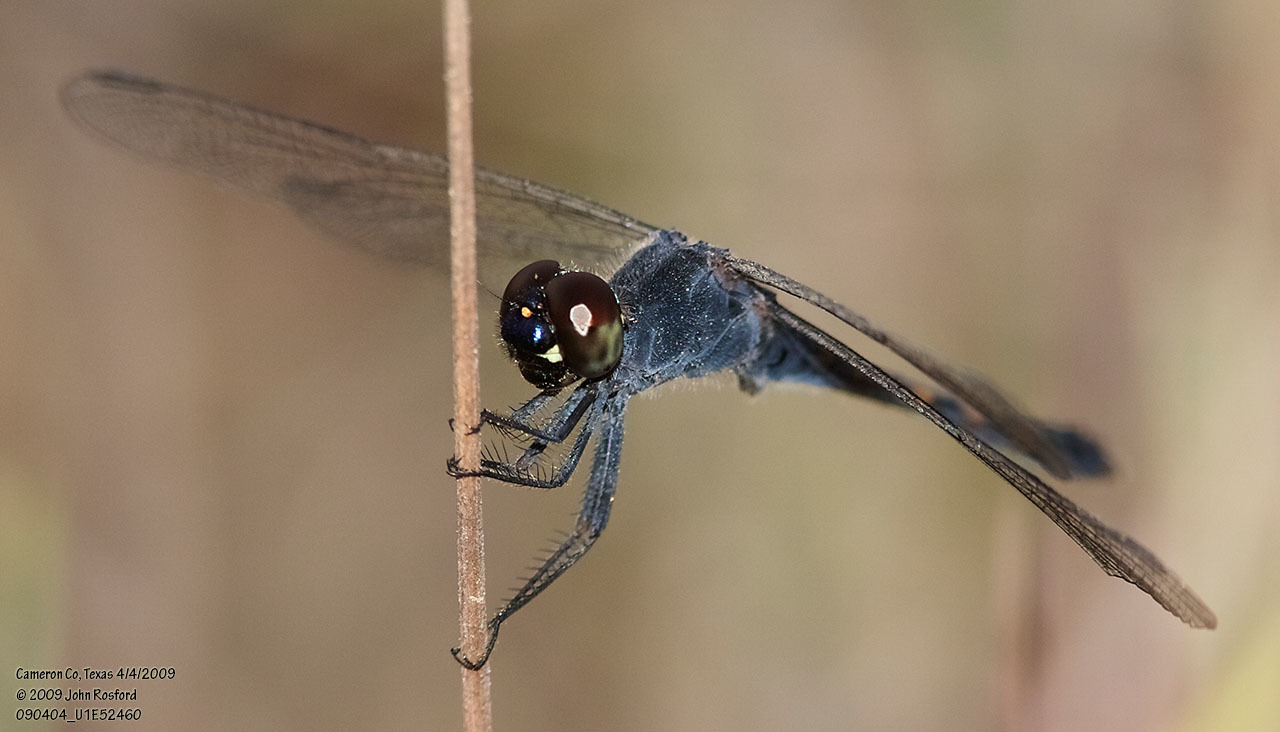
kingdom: Animalia
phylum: Arthropoda
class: Insecta
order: Odonata
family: Libellulidae
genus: Erythrodiplax
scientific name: Erythrodiplax berenice
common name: Seaside dragonlet
